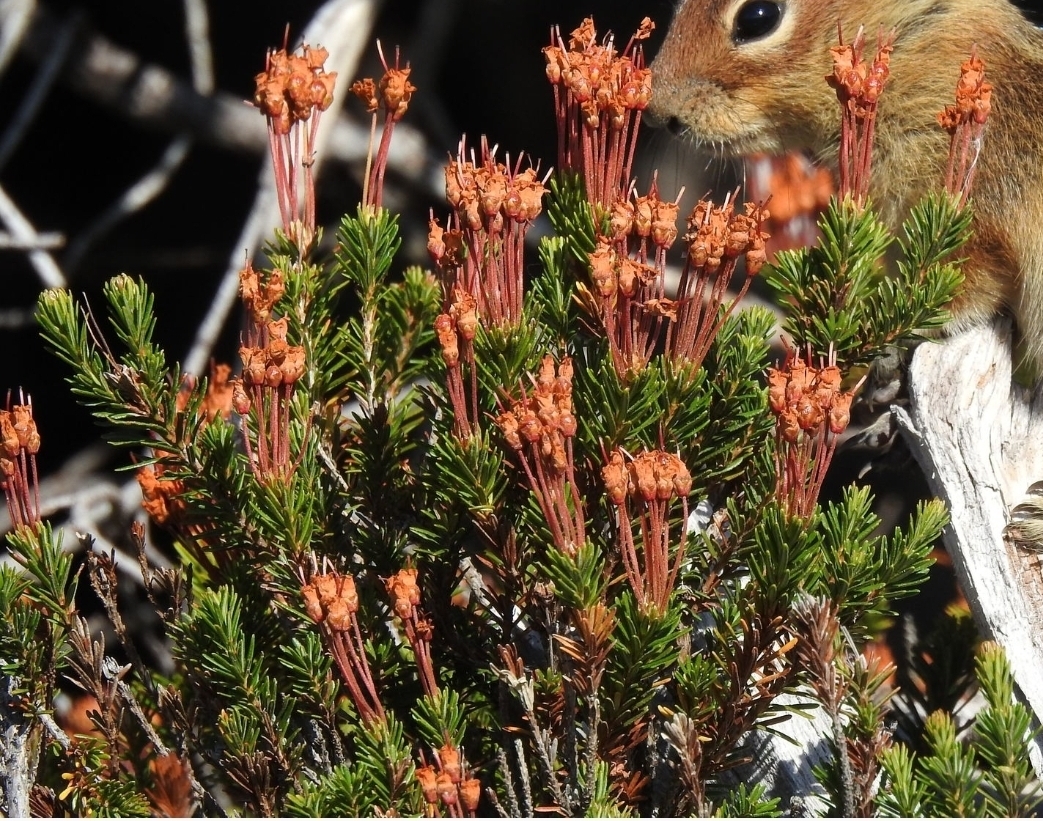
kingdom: Plantae
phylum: Tracheophyta
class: Magnoliopsida
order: Ericales
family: Ericaceae
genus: Phyllodoce
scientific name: Phyllodoce empetriformis
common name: Pink mountain heather
